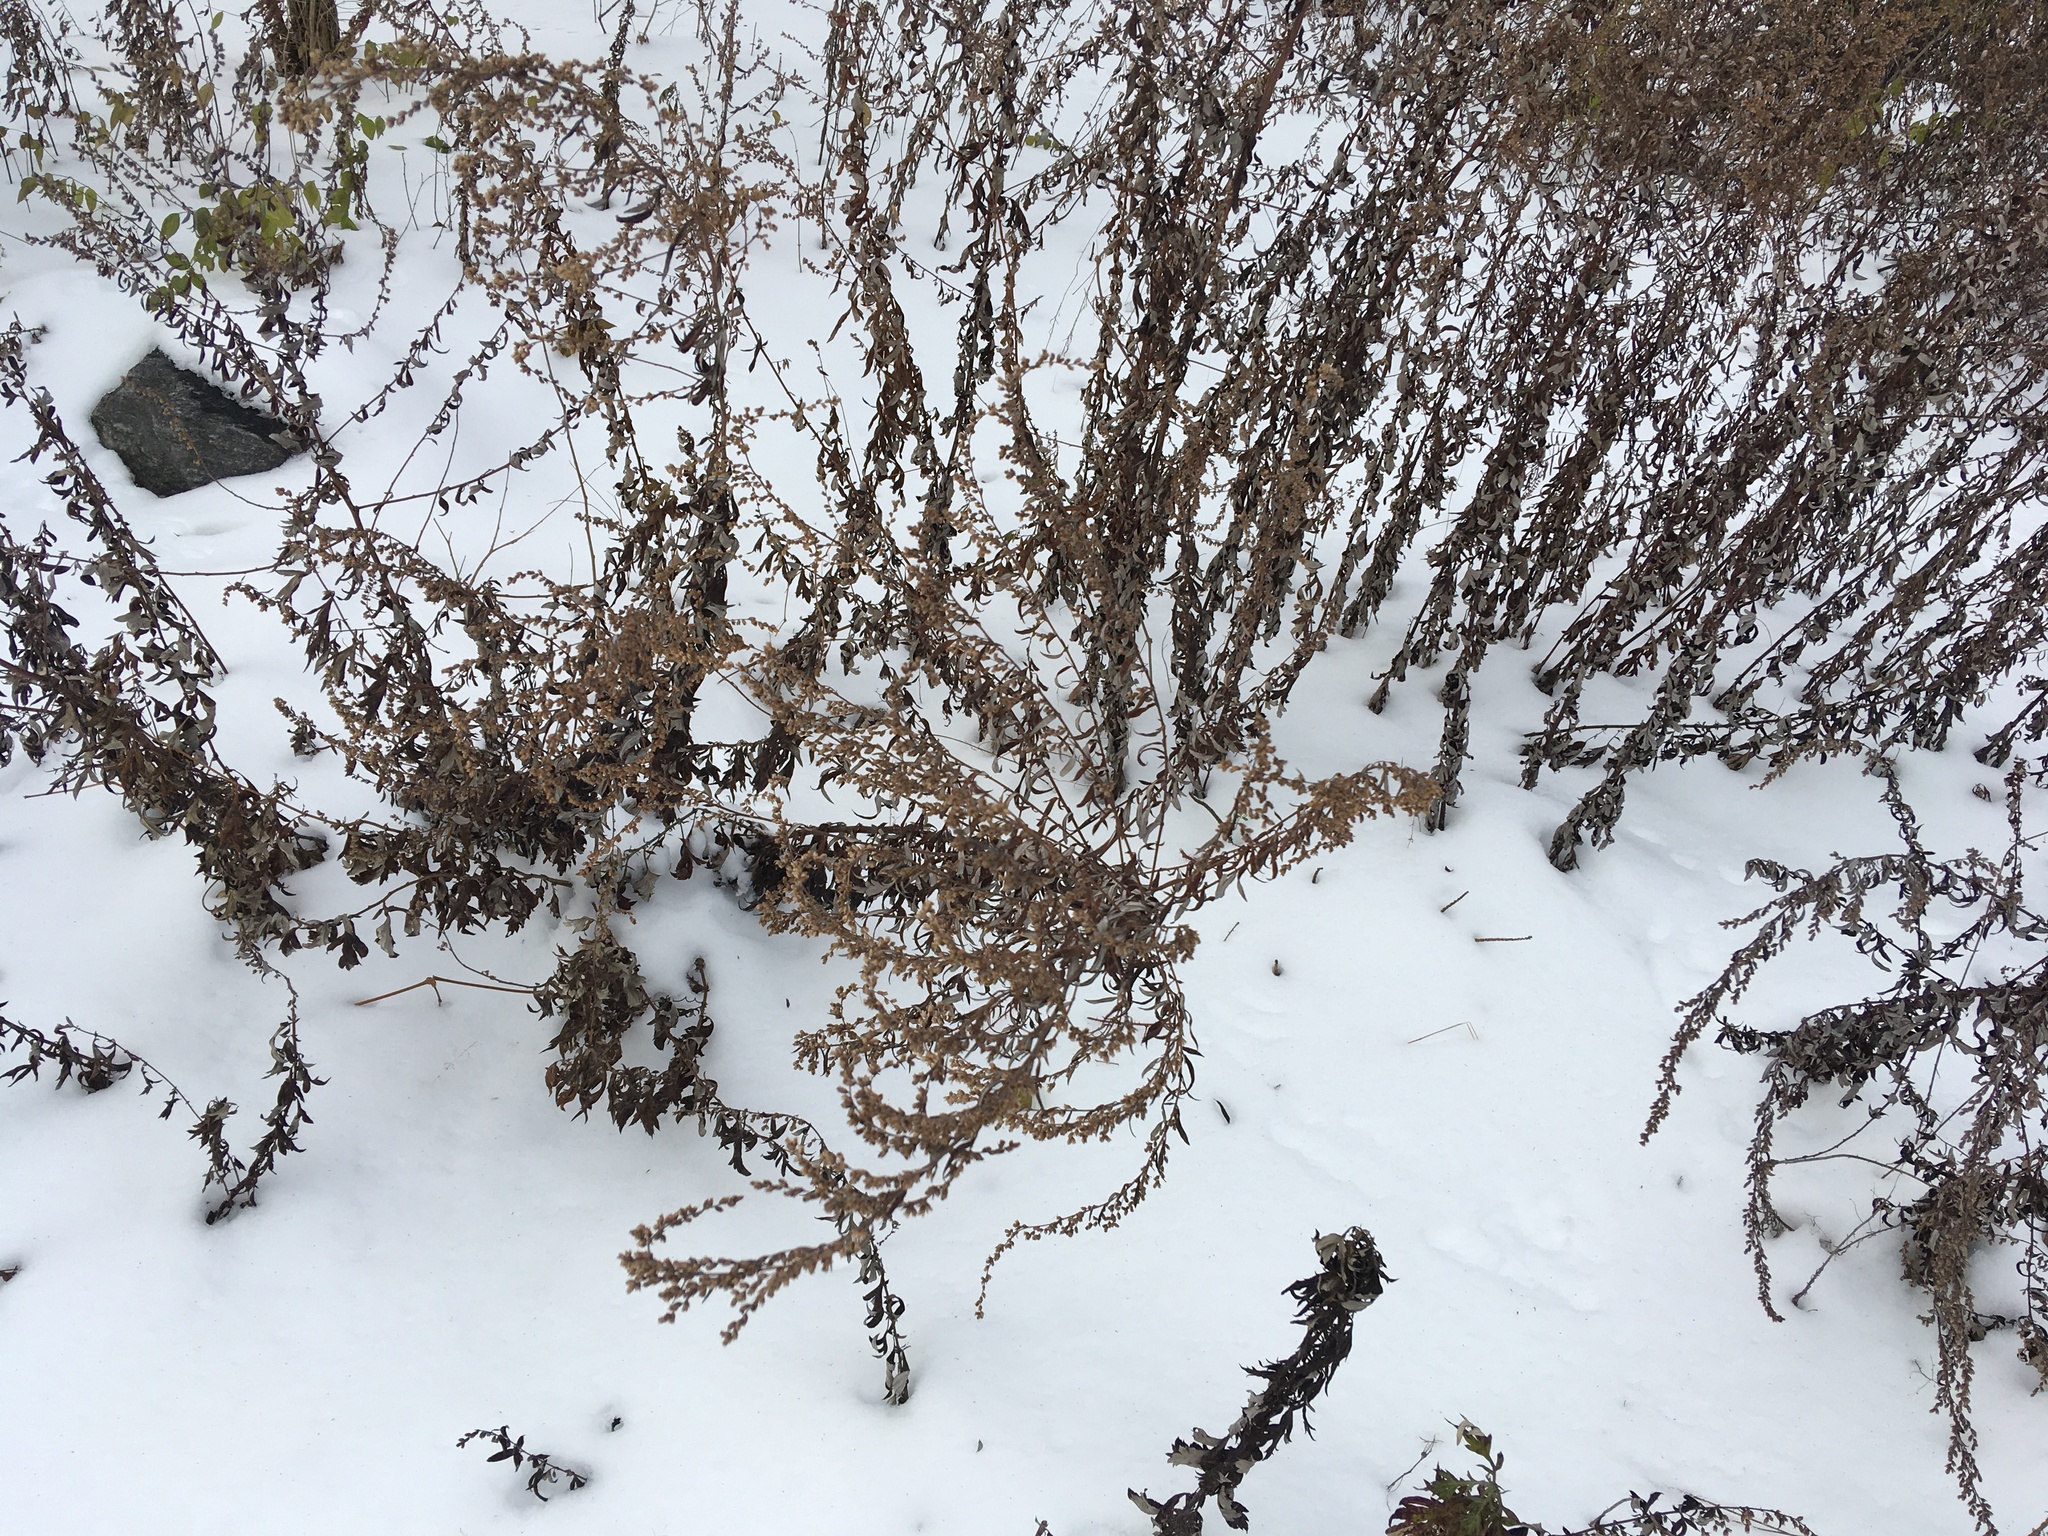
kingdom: Plantae
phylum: Tracheophyta
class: Magnoliopsida
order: Asterales
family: Asteraceae
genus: Artemisia
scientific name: Artemisia vulgaris
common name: Mugwort
